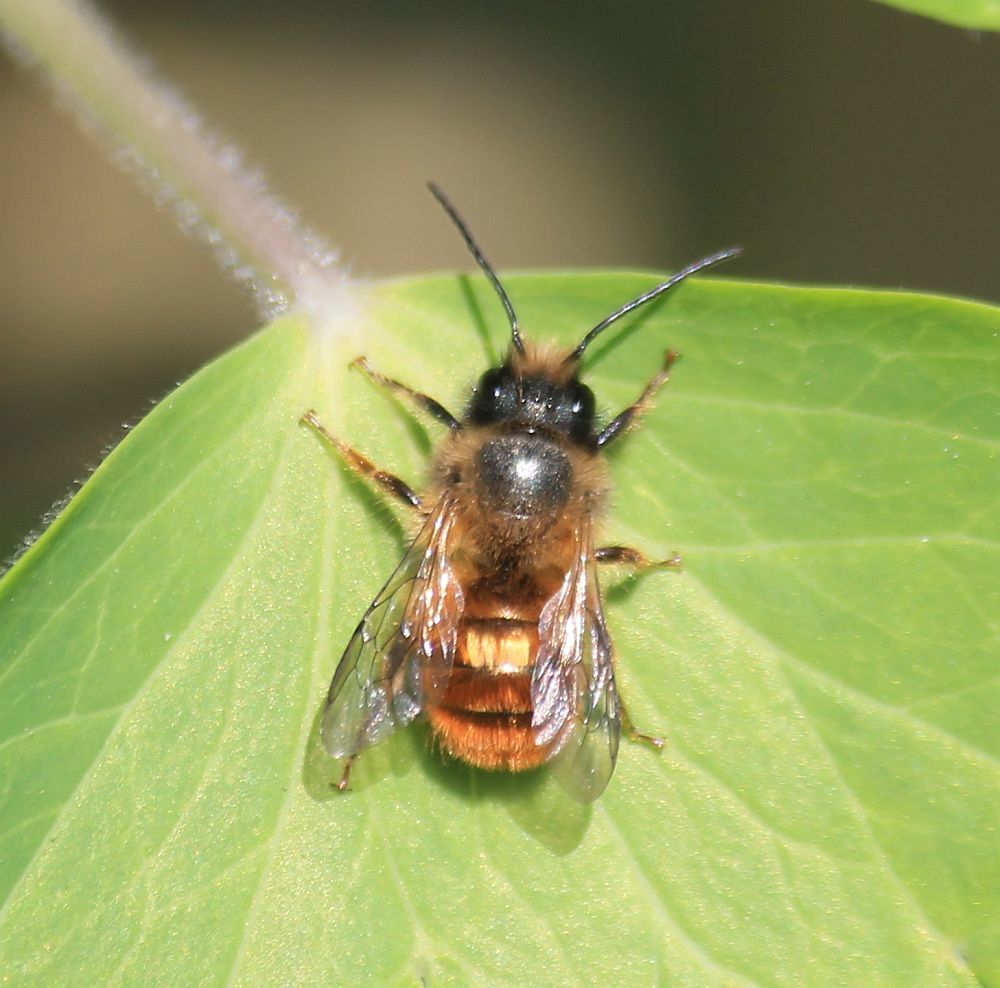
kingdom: Animalia
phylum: Arthropoda
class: Insecta
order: Hymenoptera
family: Megachilidae
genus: Osmia
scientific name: Osmia bicornis
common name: Red mason bee
